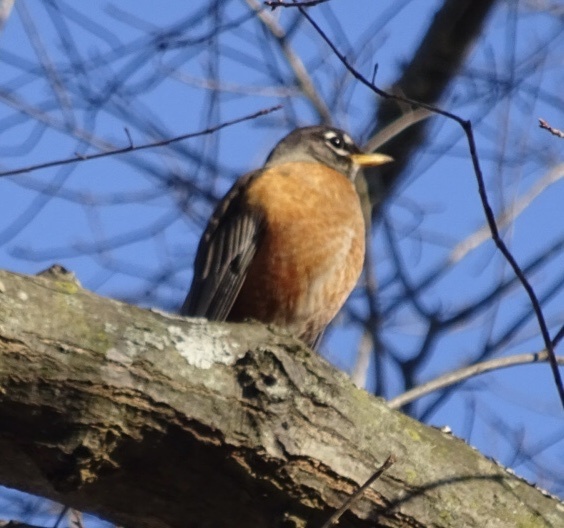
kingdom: Animalia
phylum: Chordata
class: Aves
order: Passeriformes
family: Turdidae
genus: Turdus
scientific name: Turdus migratorius
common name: American robin
